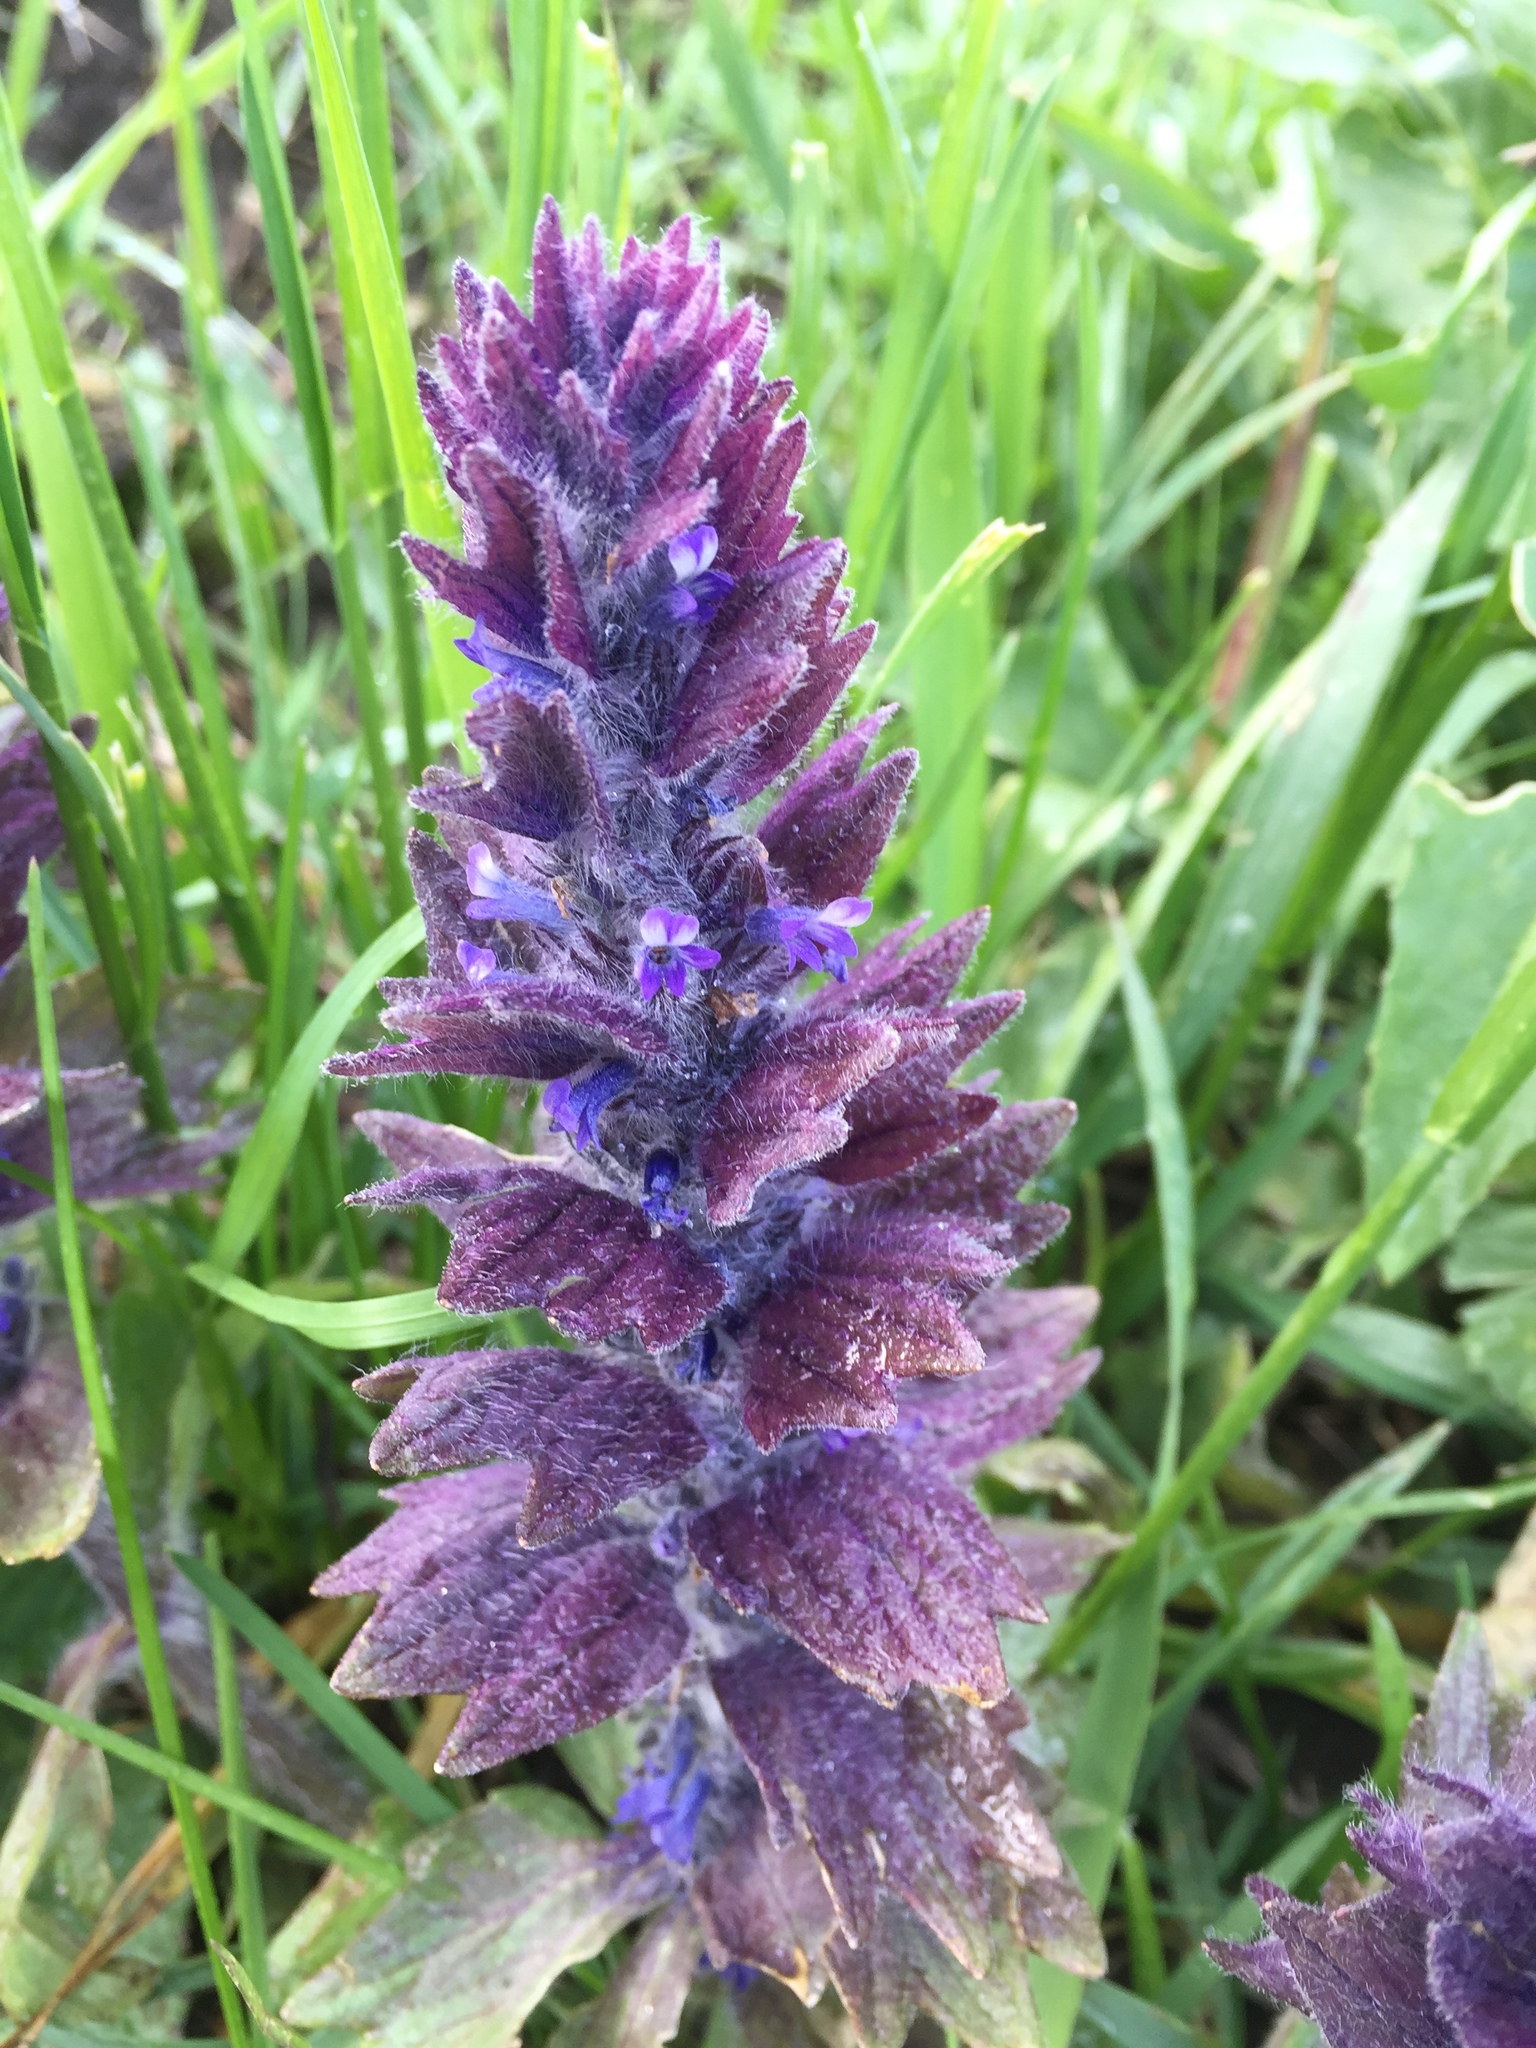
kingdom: Plantae
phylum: Tracheophyta
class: Magnoliopsida
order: Lamiales
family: Lamiaceae
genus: Ajuga
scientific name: Ajuga orientalis
